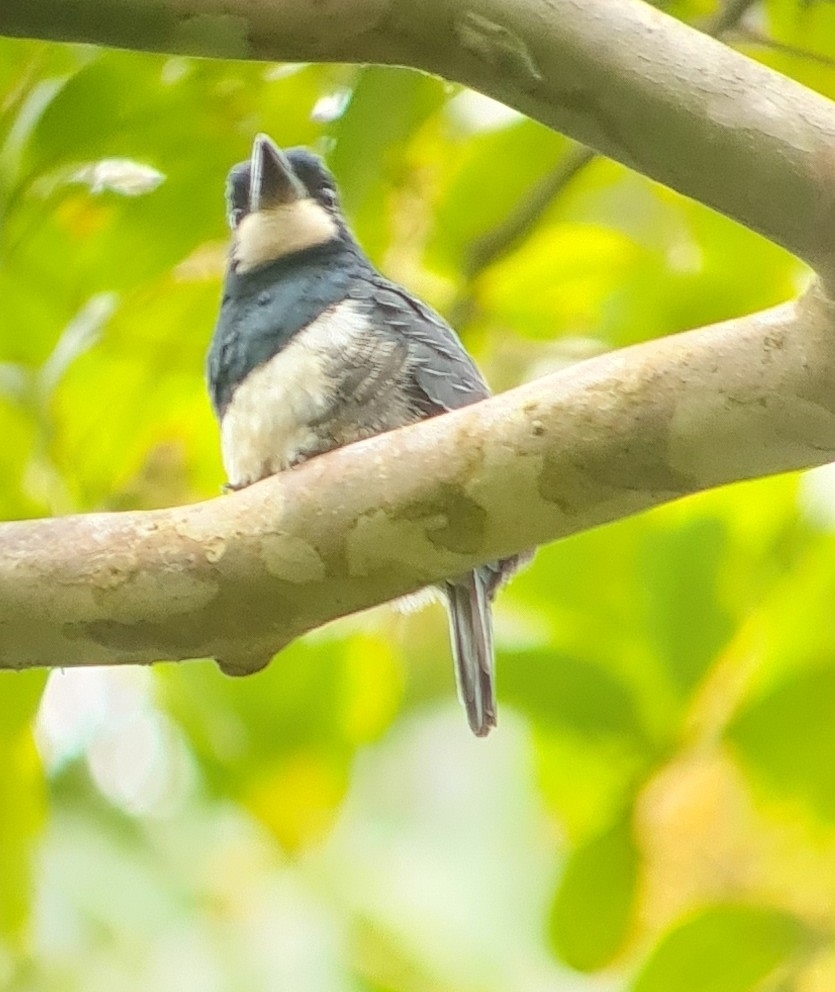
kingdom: Animalia
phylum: Chordata
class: Aves
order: Piciformes
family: Bucconidae
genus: Notharchus
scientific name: Notharchus pectoralis
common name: Black-breasted puffbird
